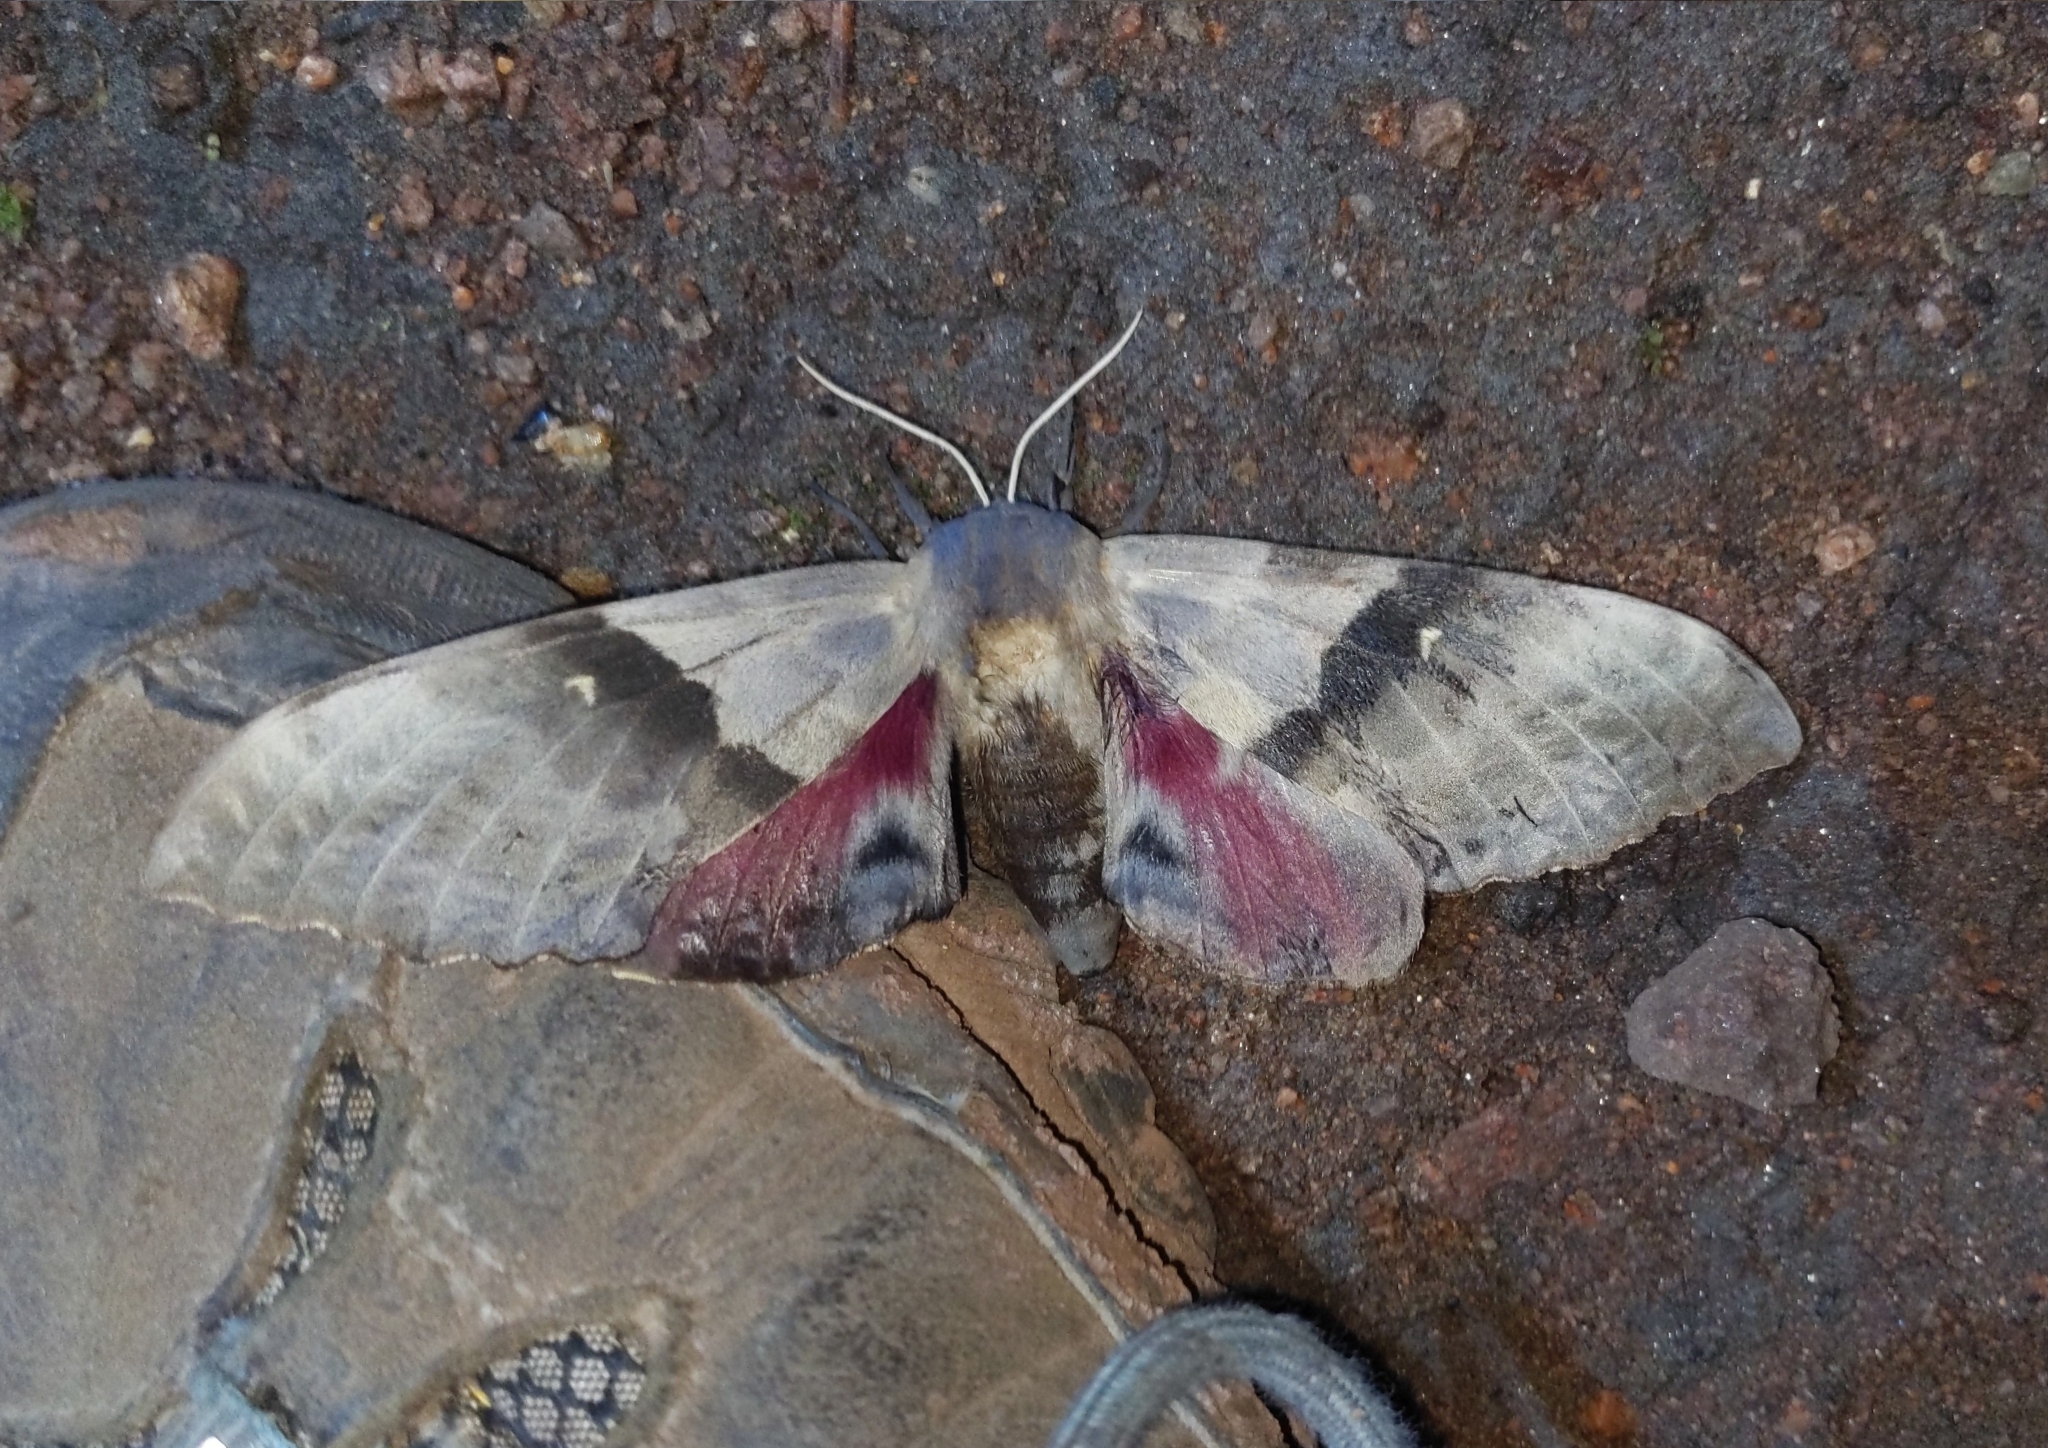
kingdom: Animalia
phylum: Arthropoda
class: Insecta
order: Lepidoptera
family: Sphingidae
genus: Pachysphinx
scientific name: Pachysphinx modesta
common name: Big poplar sphinx
